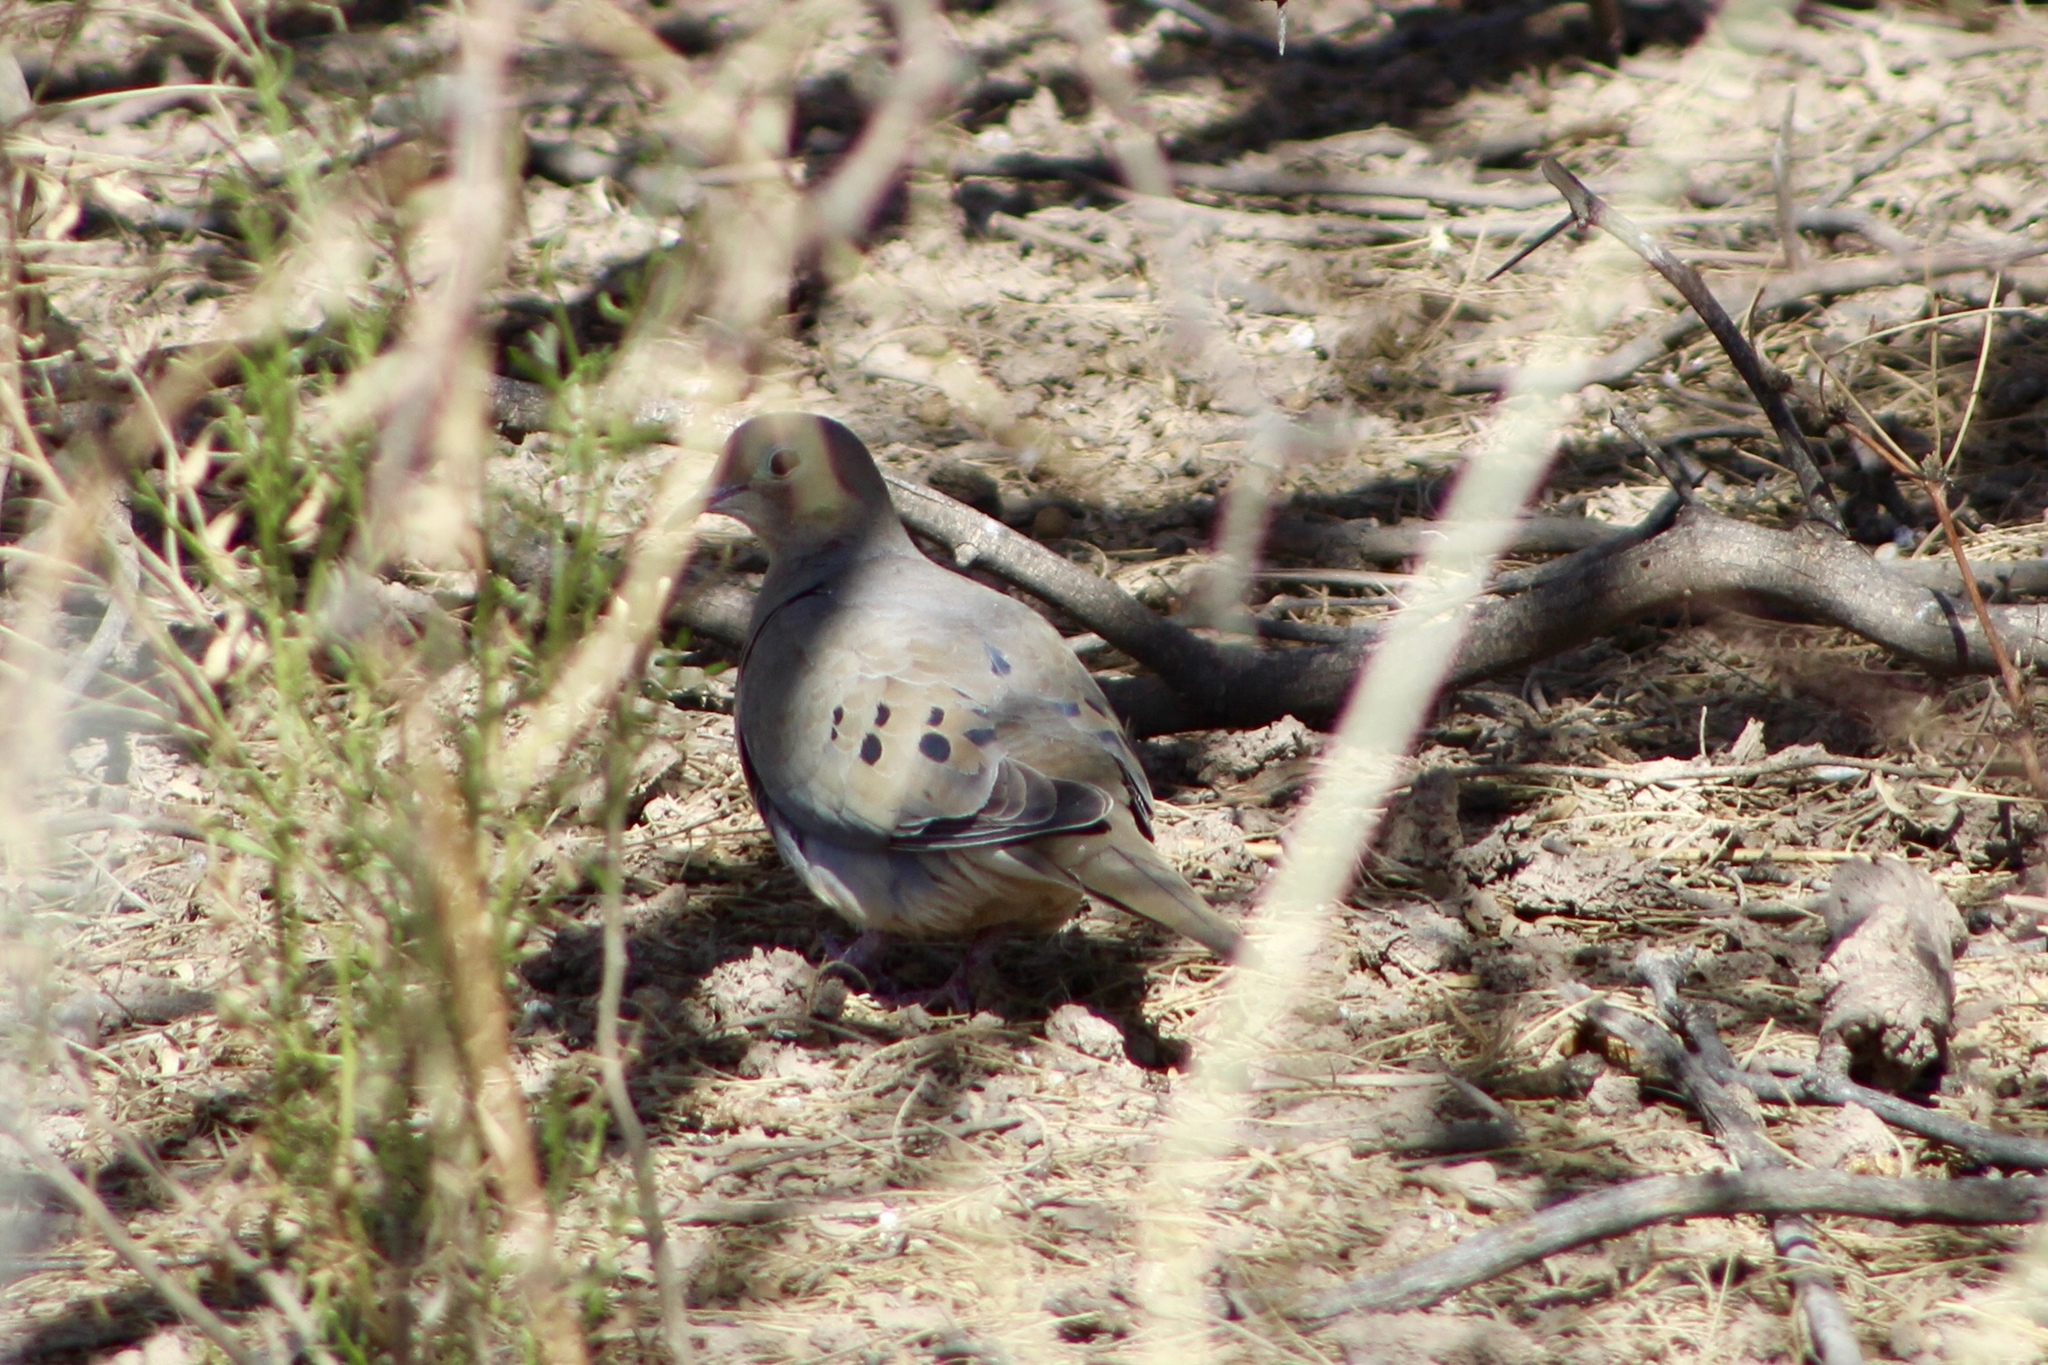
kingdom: Animalia
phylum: Chordata
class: Aves
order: Columbiformes
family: Columbidae
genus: Zenaida
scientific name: Zenaida macroura
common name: Mourning dove
